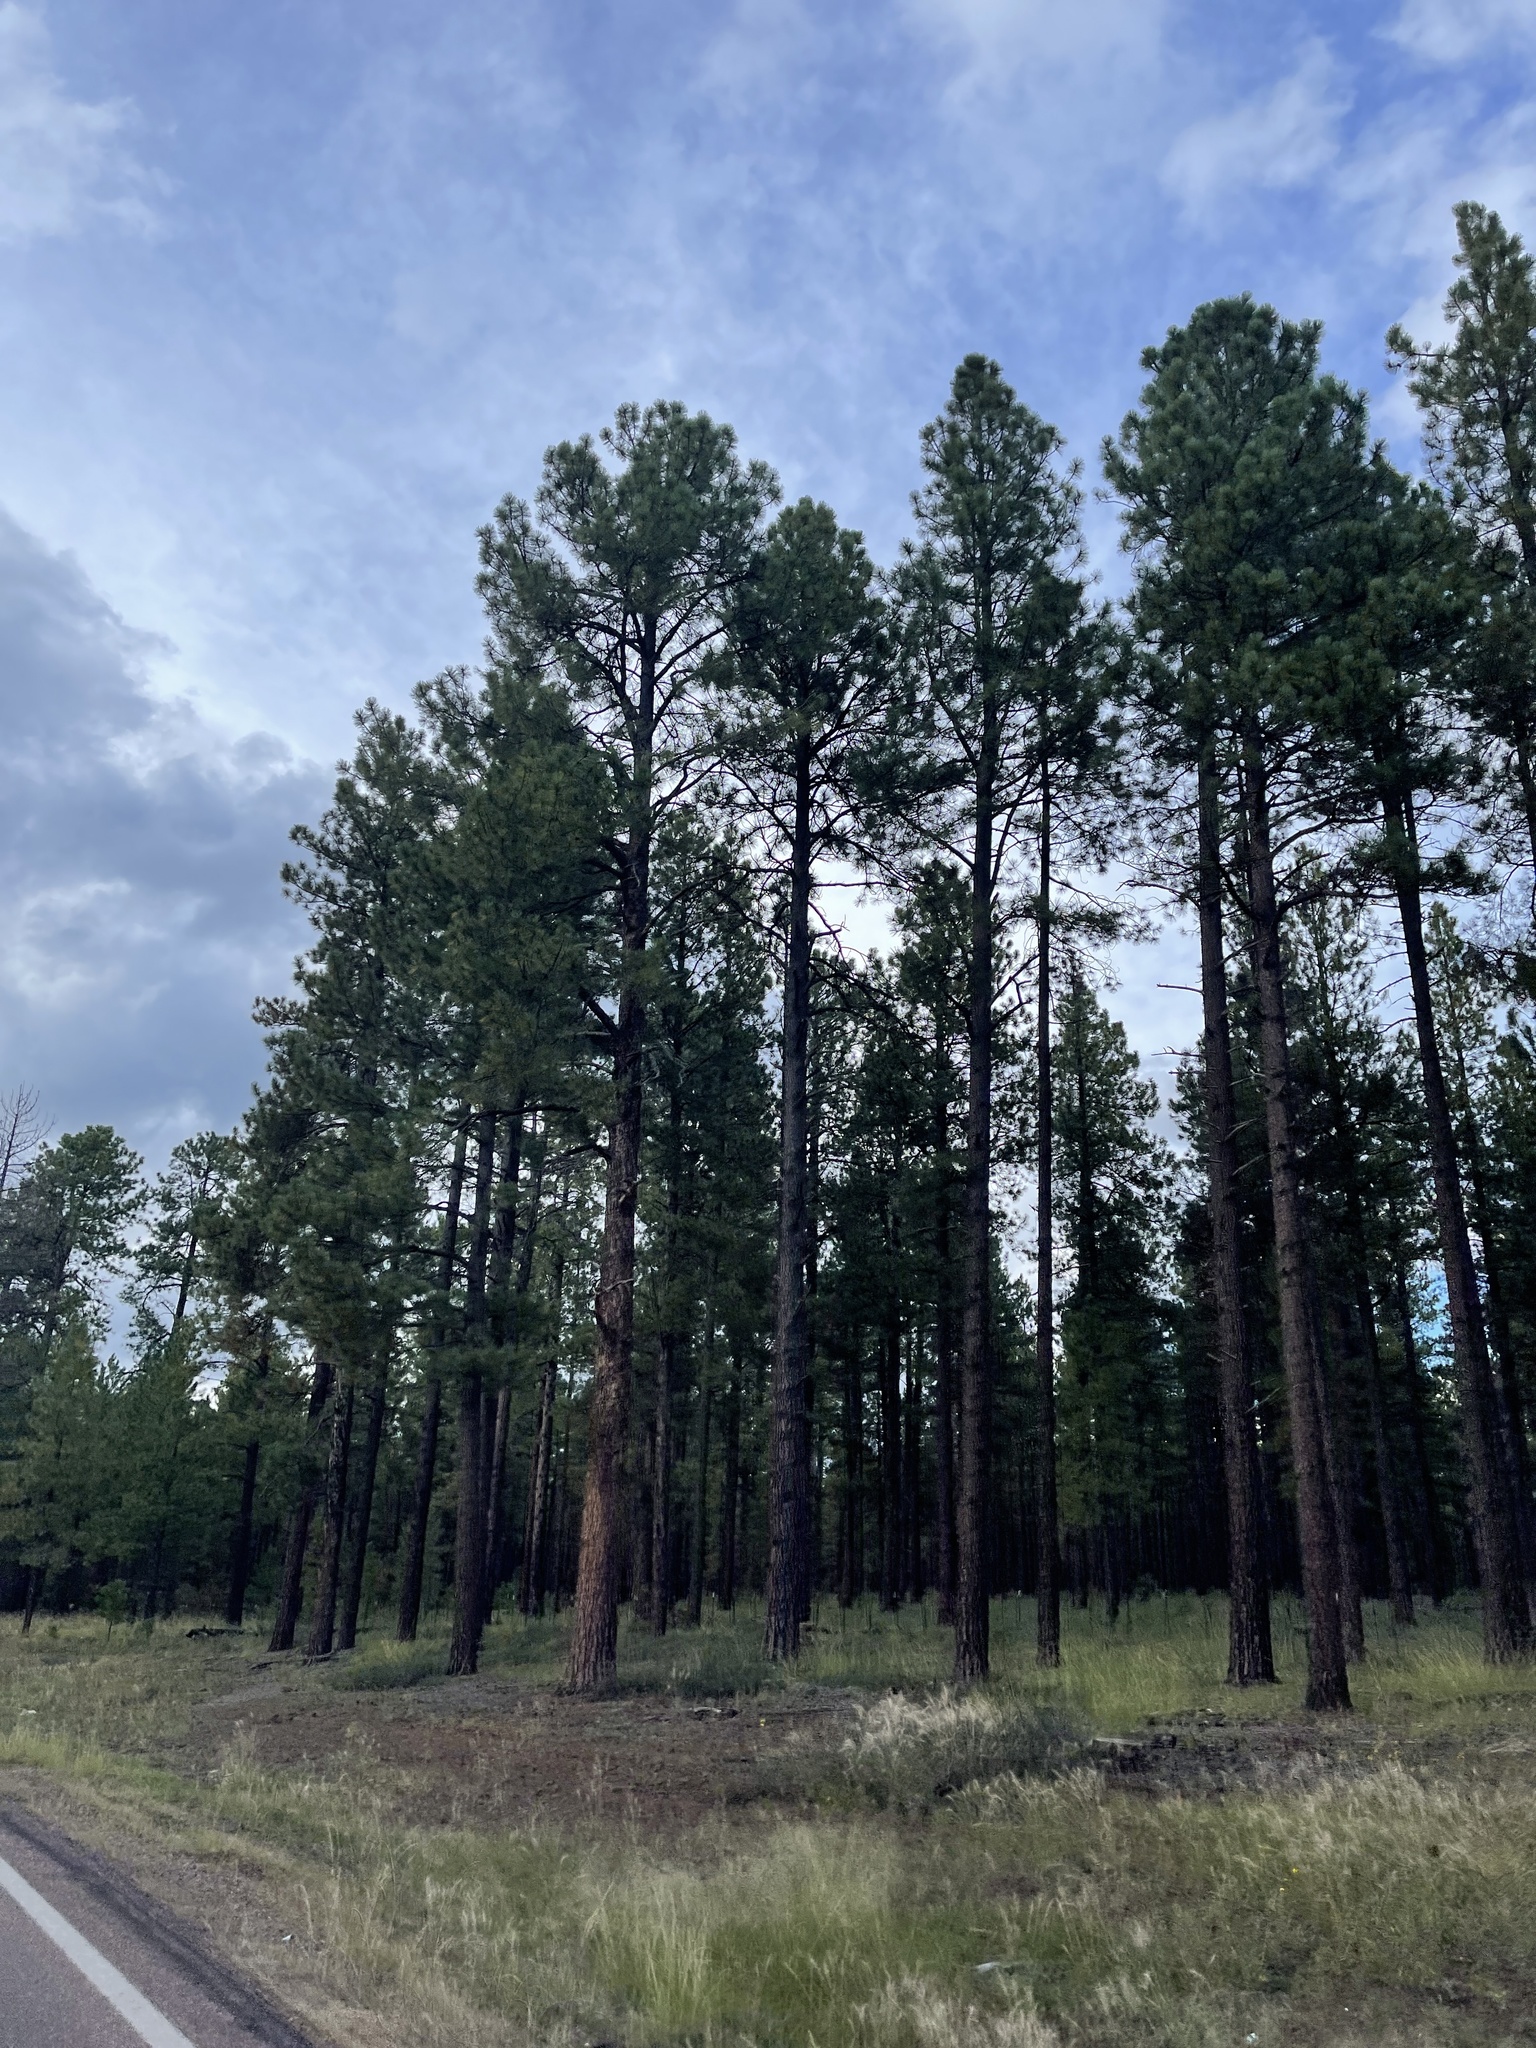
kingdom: Plantae
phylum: Tracheophyta
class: Pinopsida
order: Pinales
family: Pinaceae
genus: Pinus
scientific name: Pinus ponderosa
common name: Western yellow-pine
